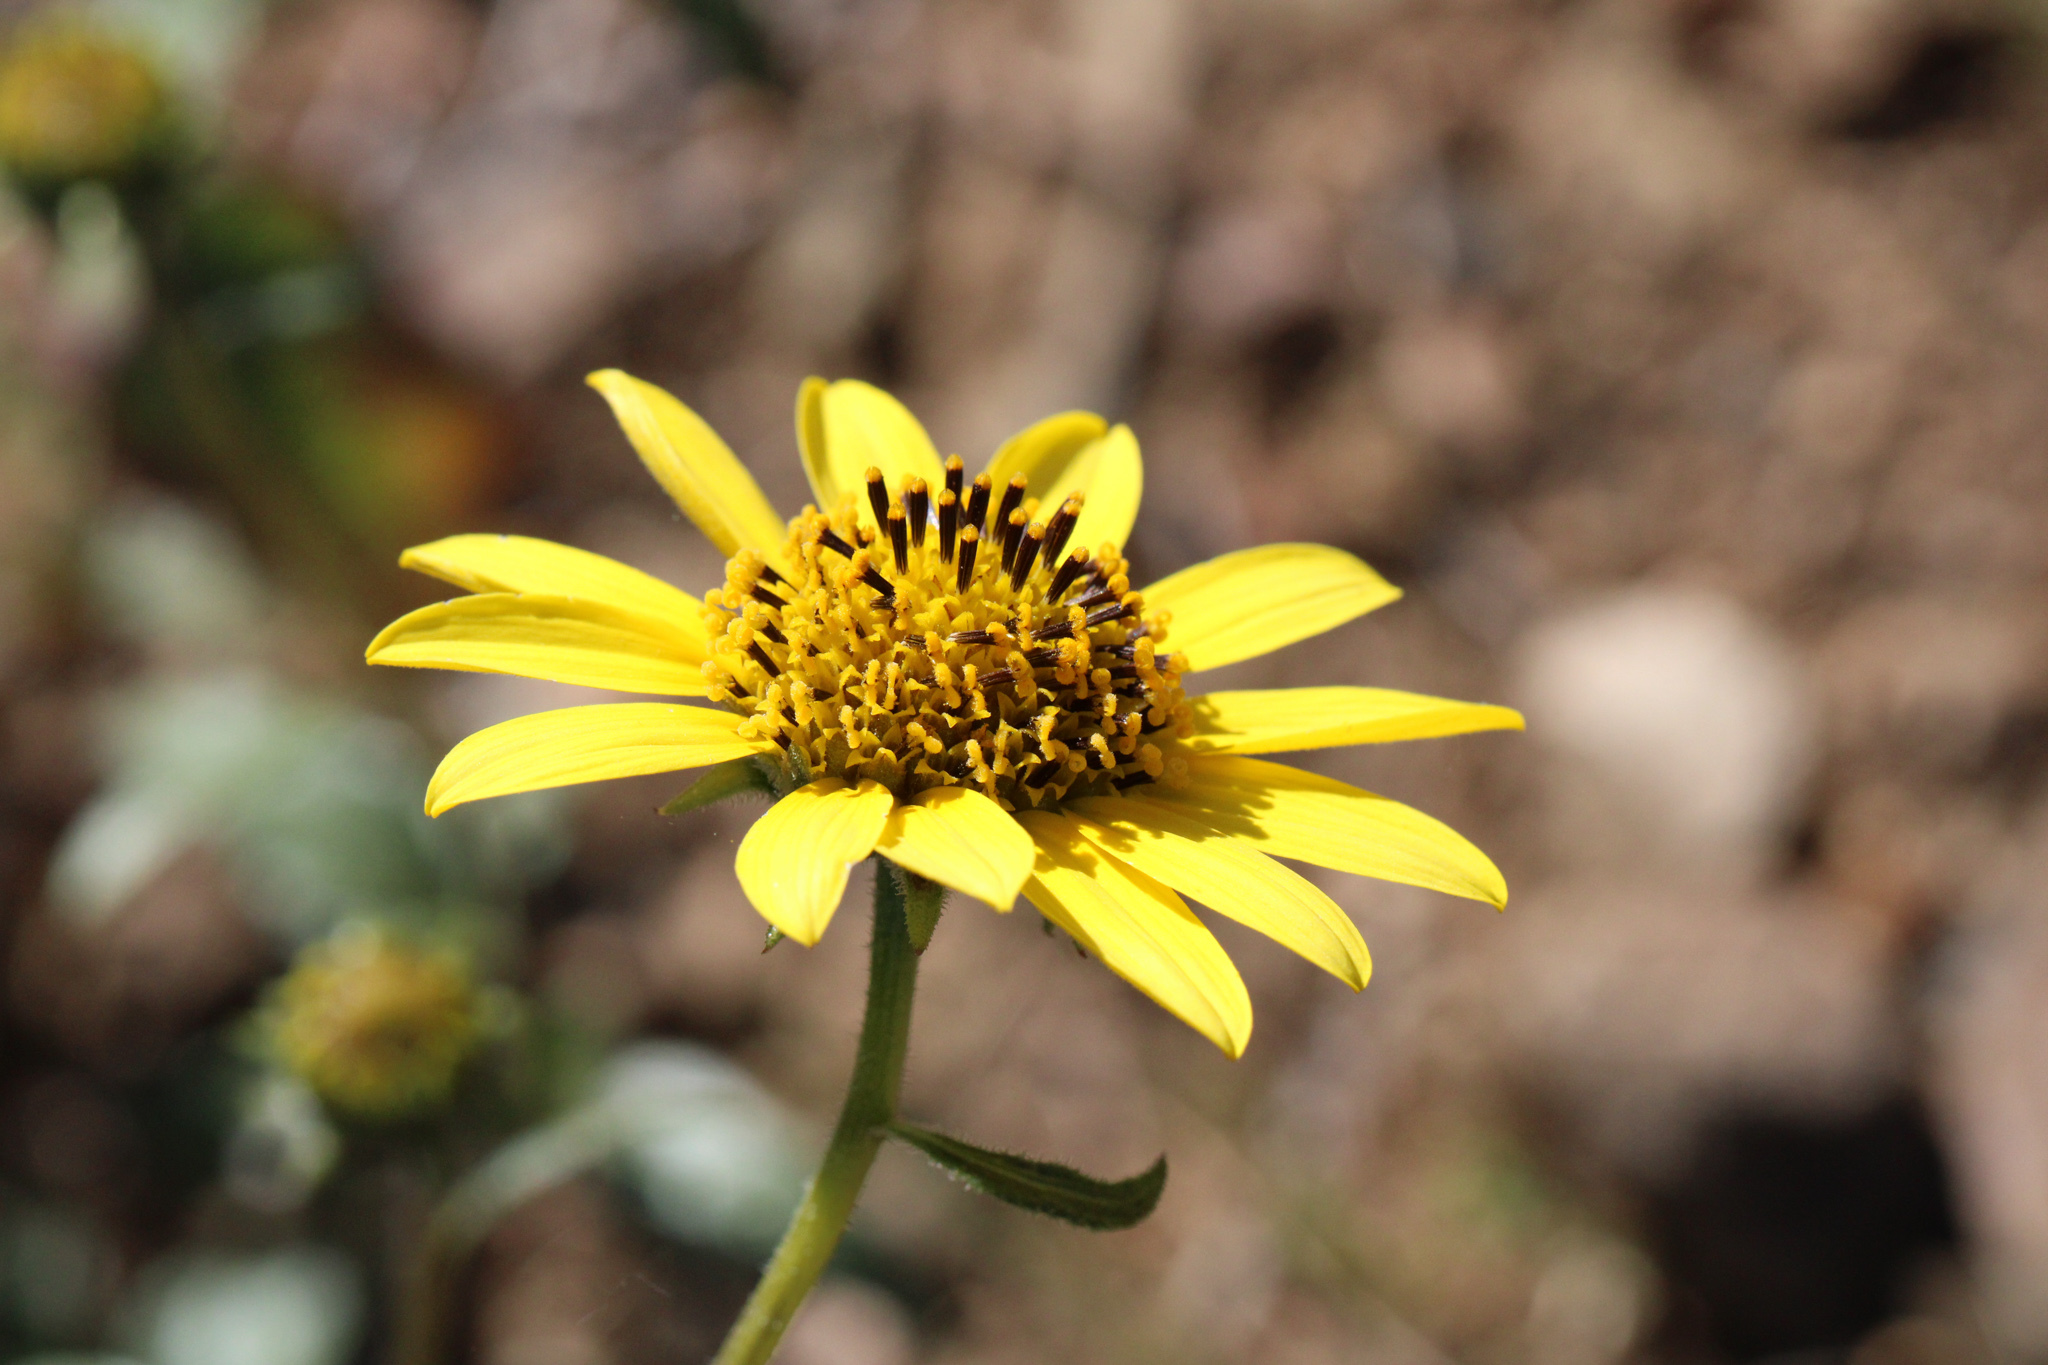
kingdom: Plantae
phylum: Tracheophyta
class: Magnoliopsida
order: Asterales
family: Asteraceae
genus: Helianthus
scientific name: Helianthus gracilentus
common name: Slender sunflower
